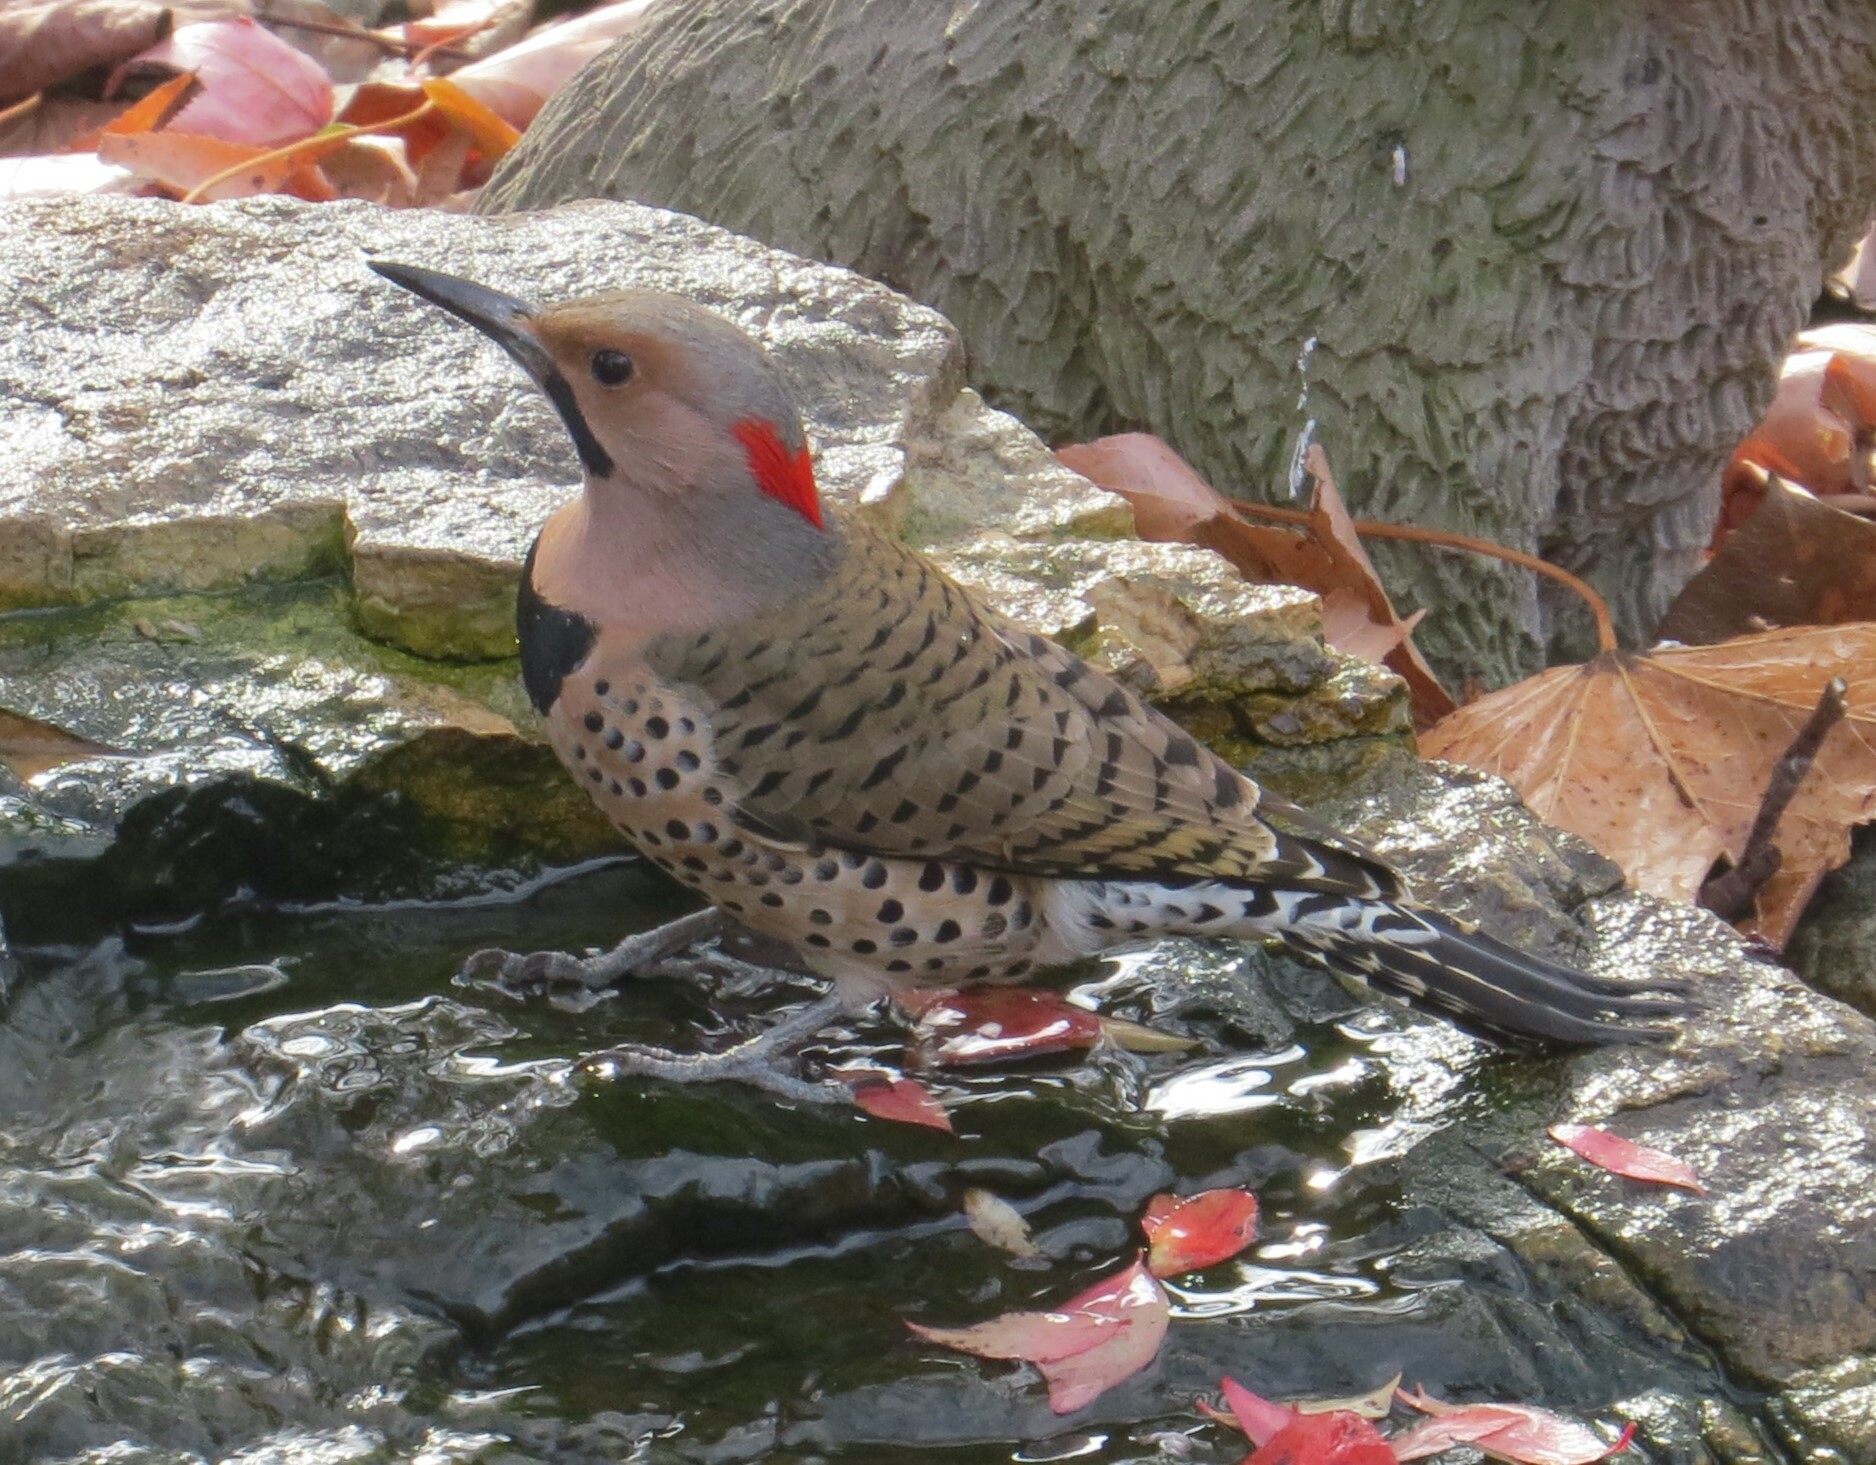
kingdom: Animalia
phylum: Chordata
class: Aves
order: Piciformes
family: Picidae
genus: Colaptes
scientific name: Colaptes auratus
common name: Northern flicker
